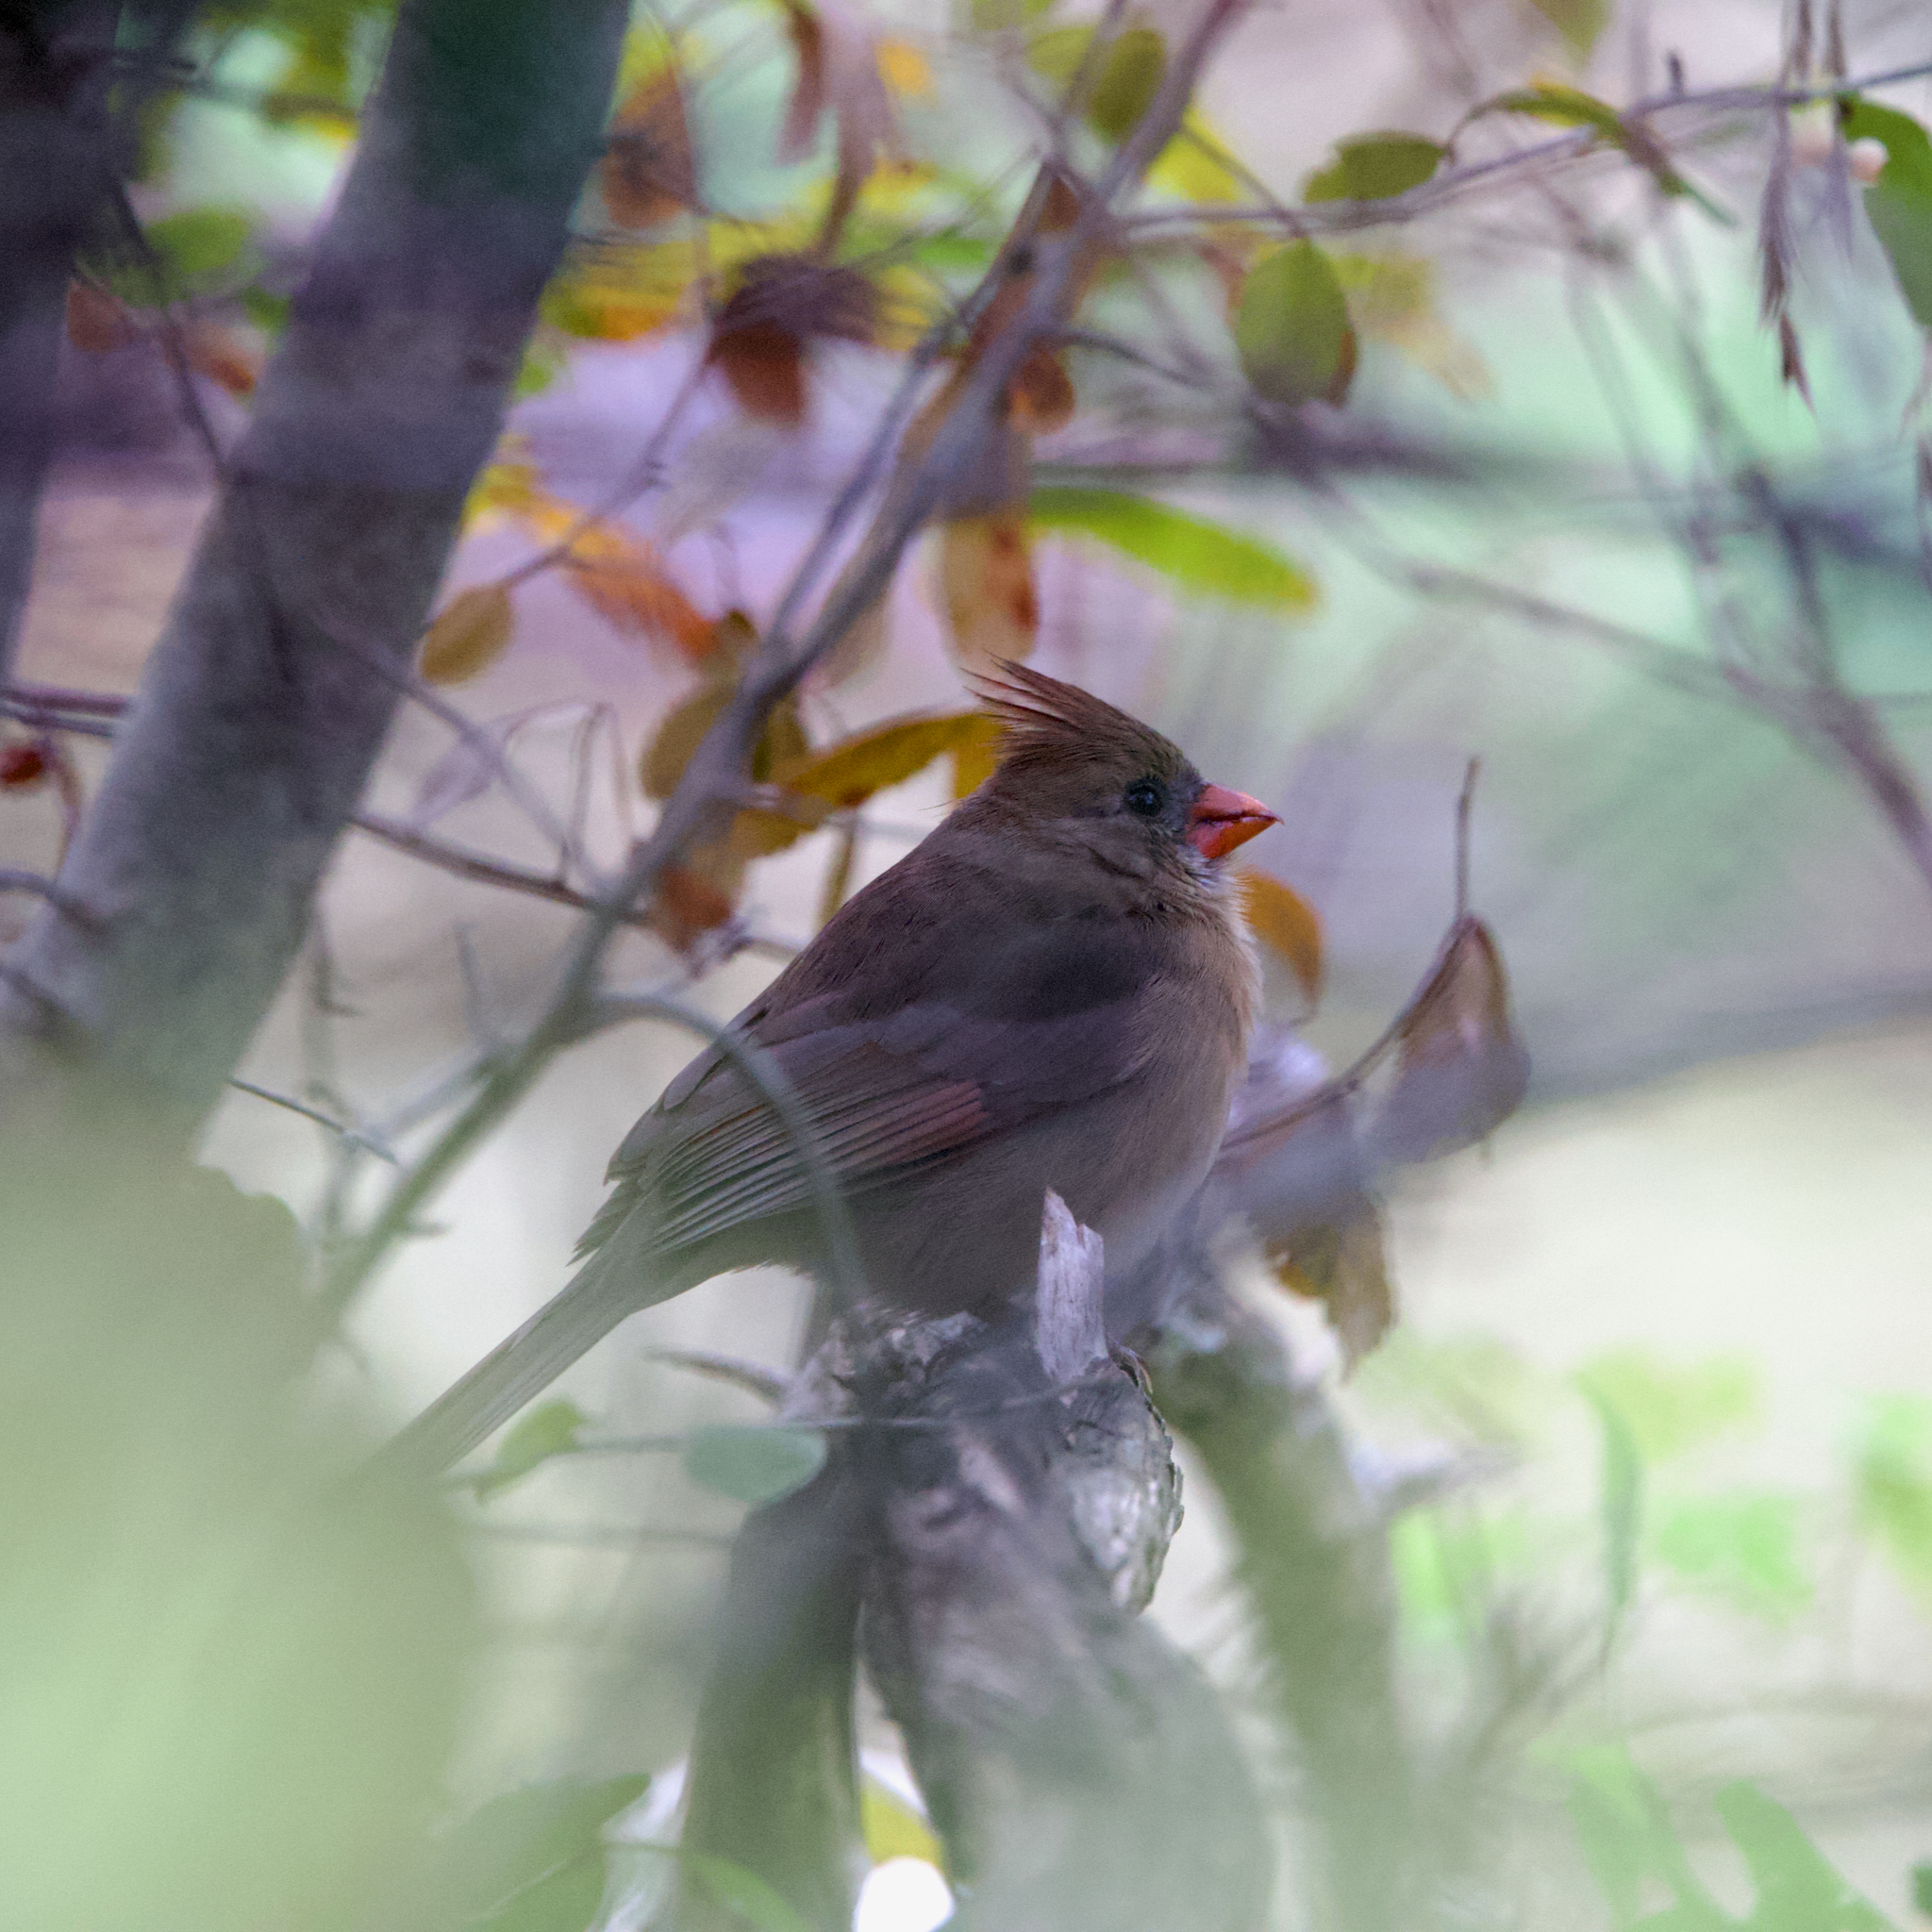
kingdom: Animalia
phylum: Chordata
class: Aves
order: Passeriformes
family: Cardinalidae
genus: Cardinalis
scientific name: Cardinalis cardinalis
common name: Northern cardinal
